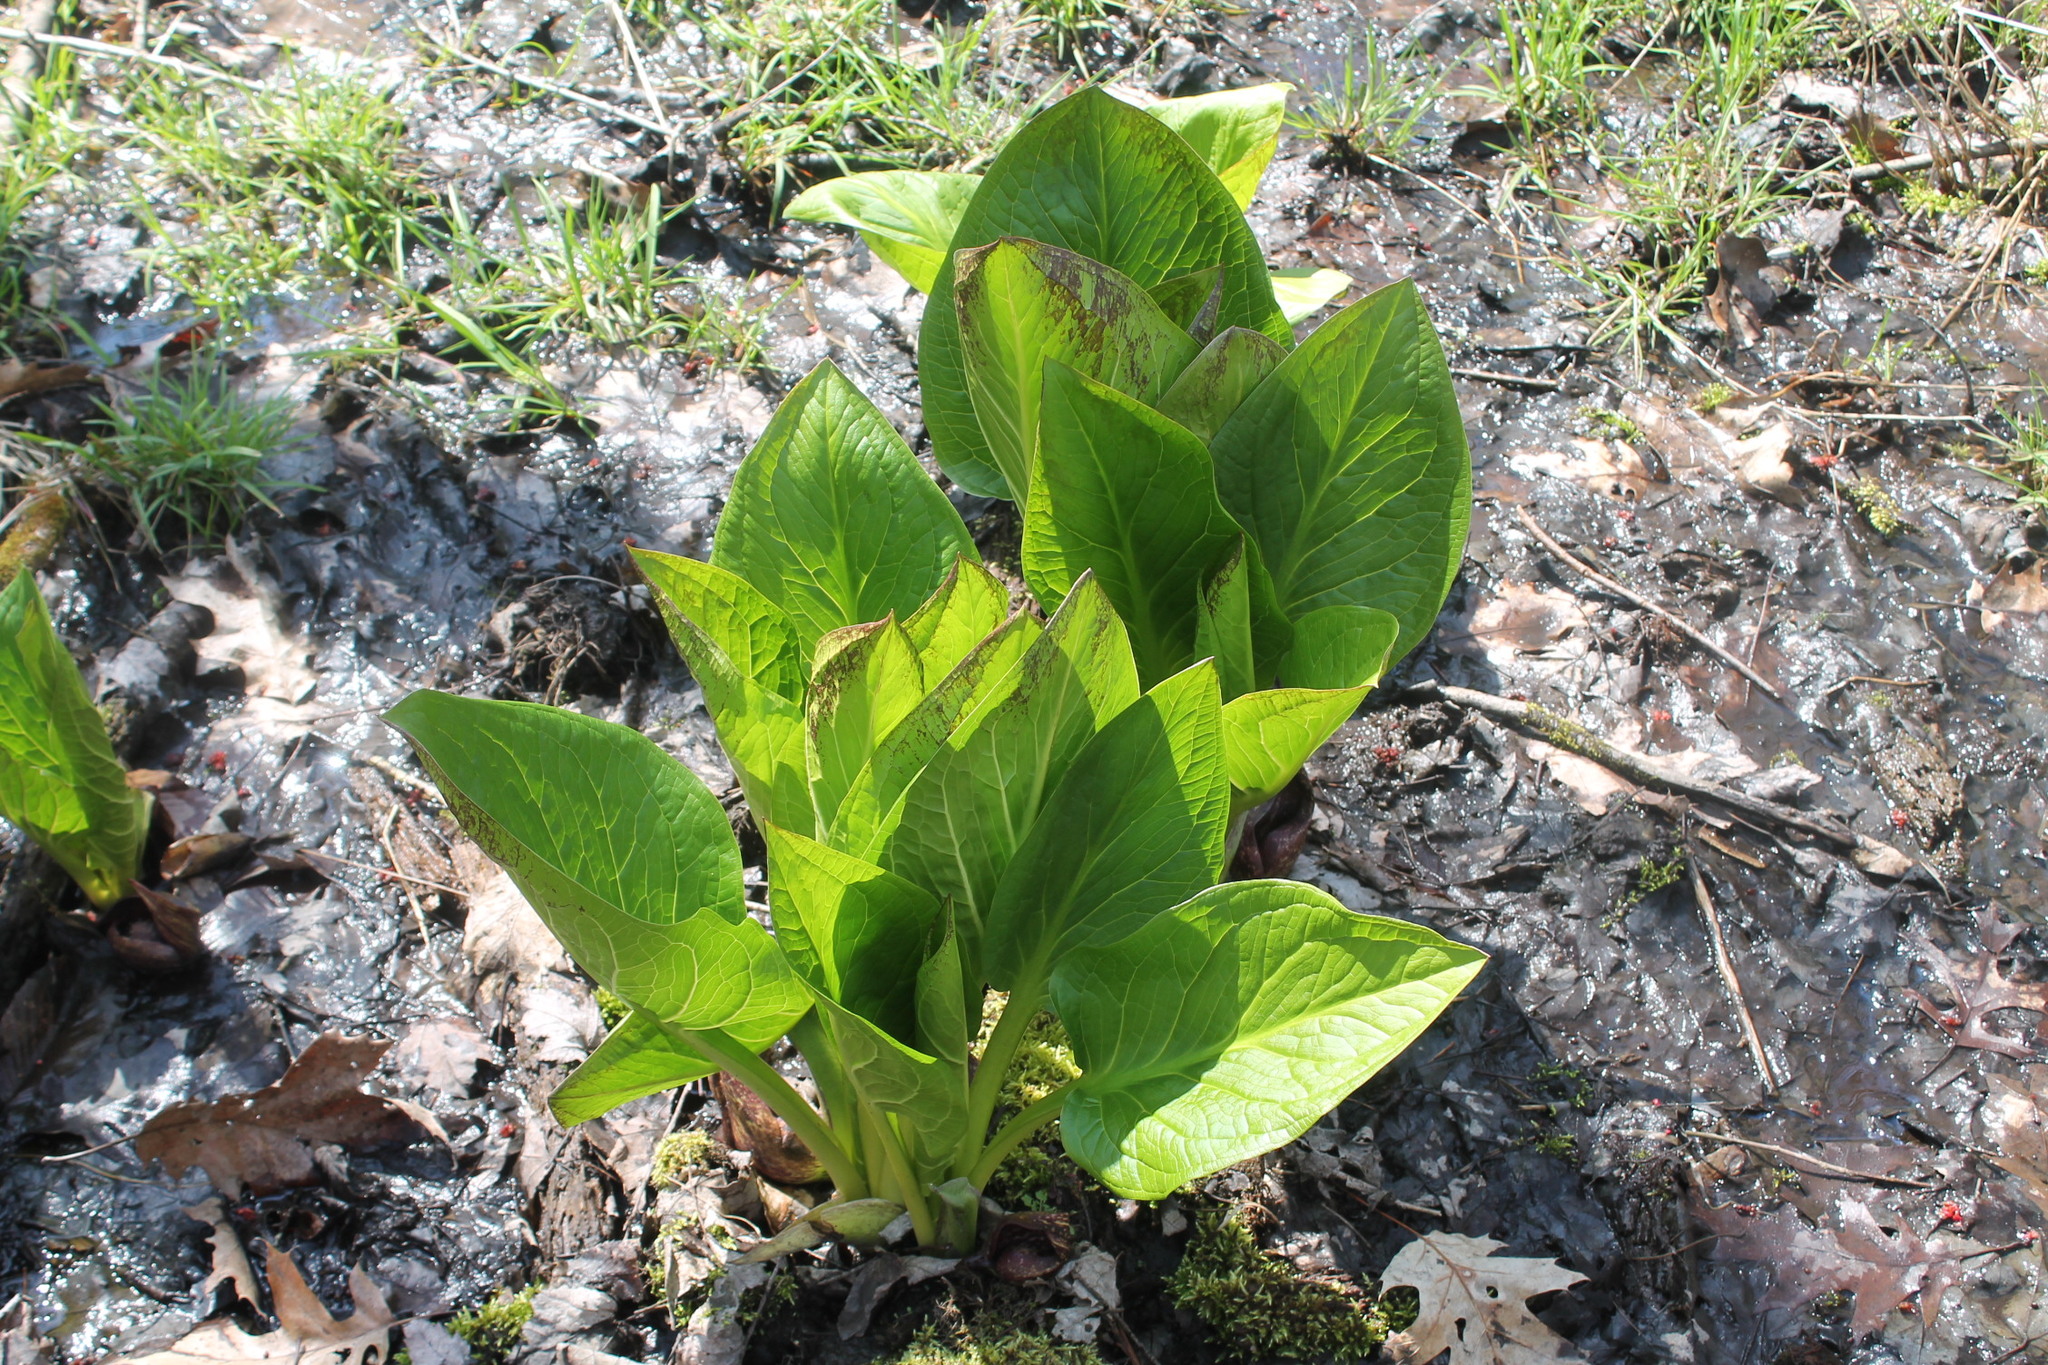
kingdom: Plantae
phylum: Tracheophyta
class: Liliopsida
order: Alismatales
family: Araceae
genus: Symplocarpus
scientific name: Symplocarpus foetidus
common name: Eastern skunk cabbage
